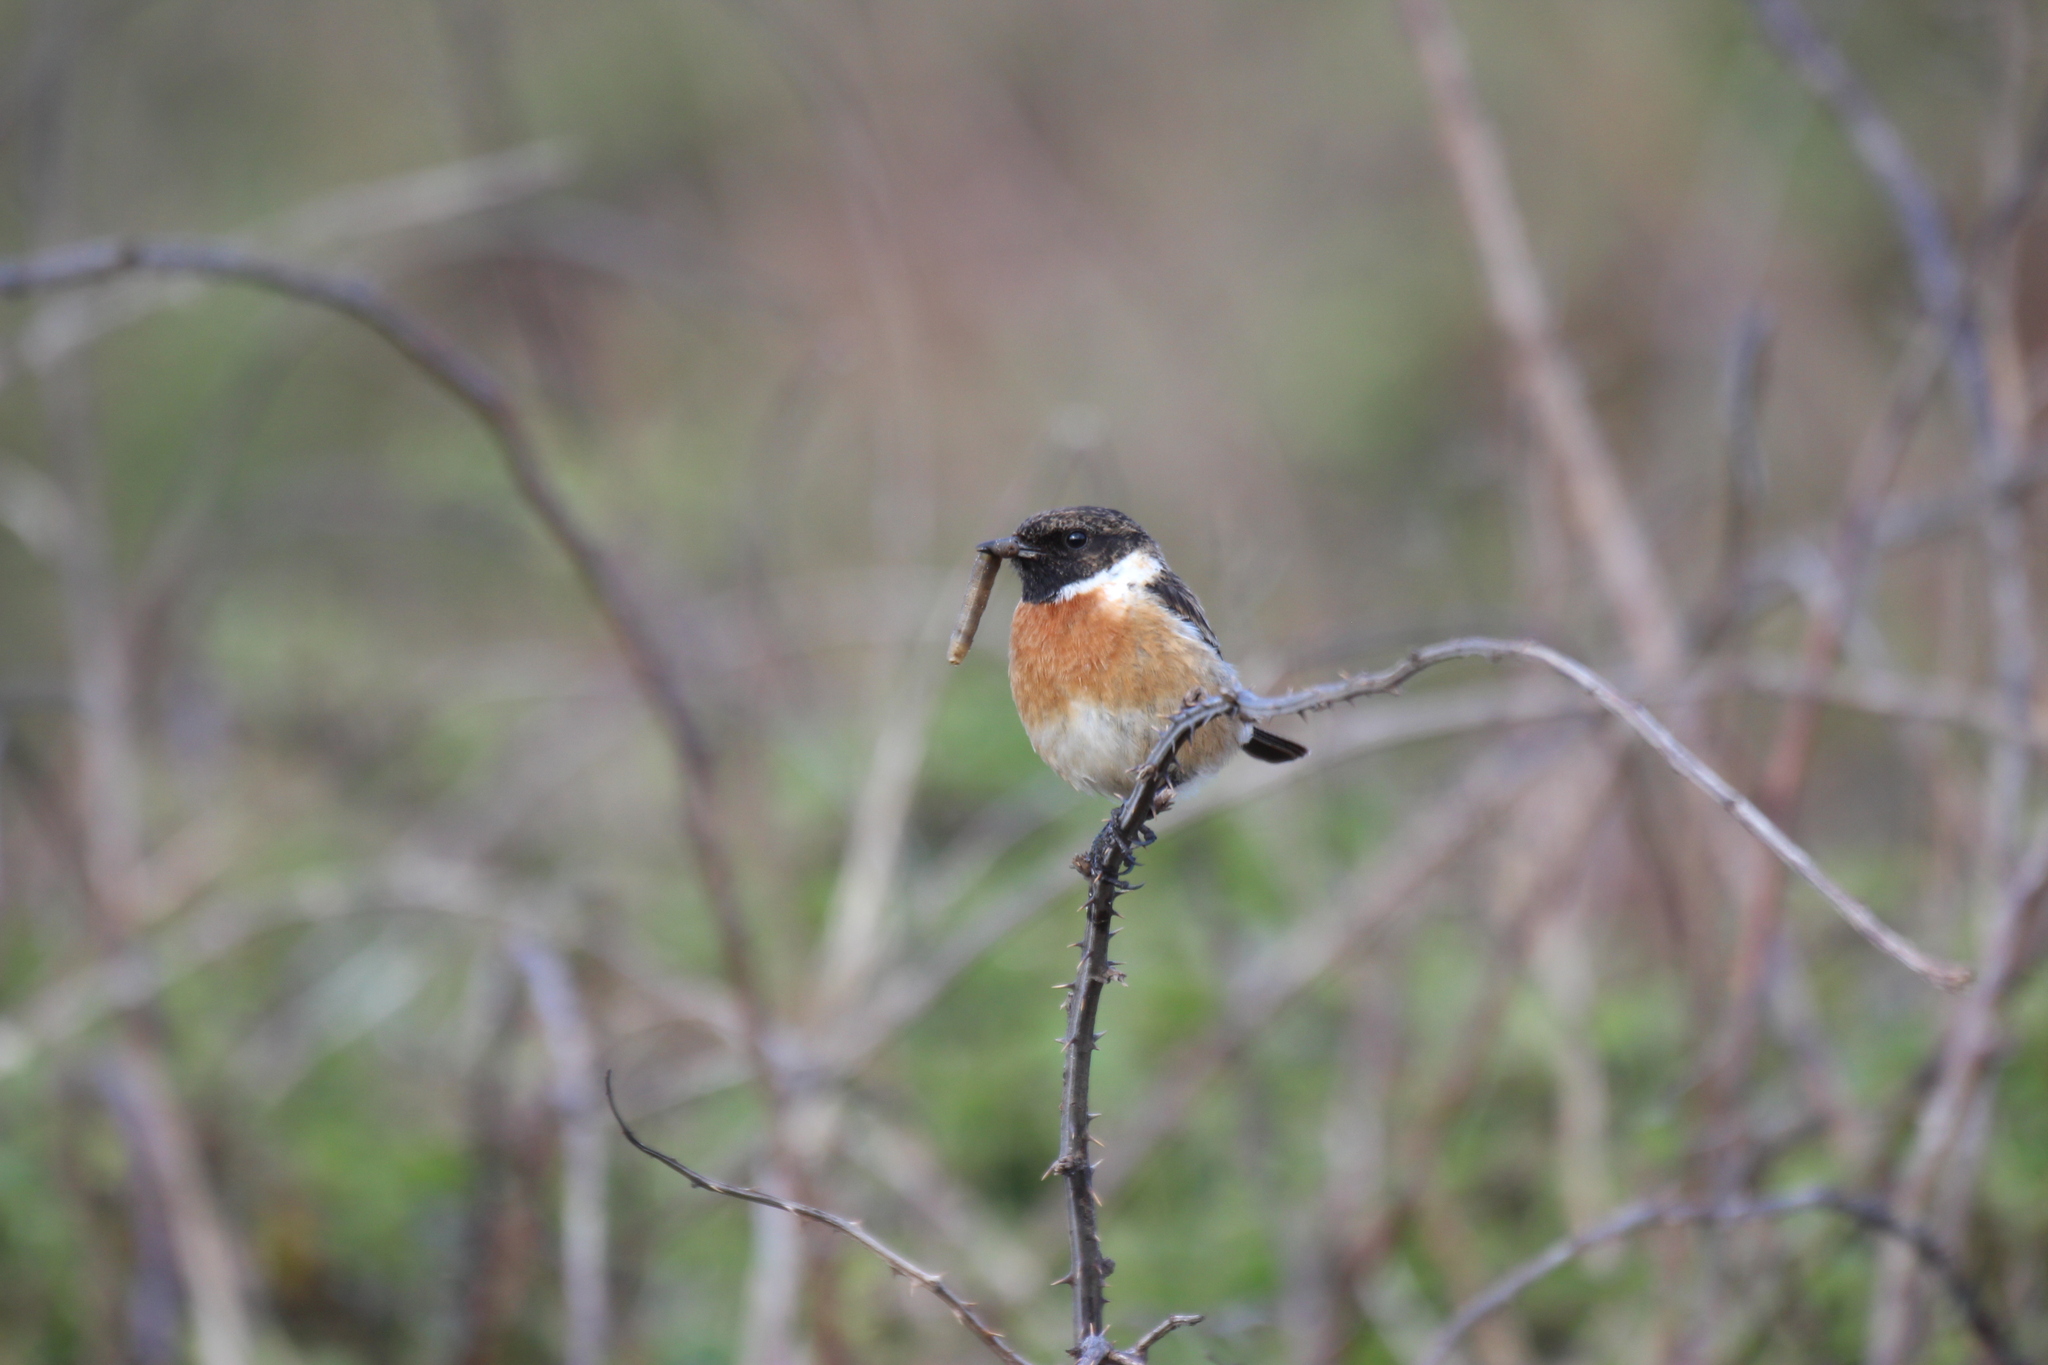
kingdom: Animalia
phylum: Chordata
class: Aves
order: Passeriformes
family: Muscicapidae
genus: Saxicola
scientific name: Saxicola rubicola
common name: European stonechat
